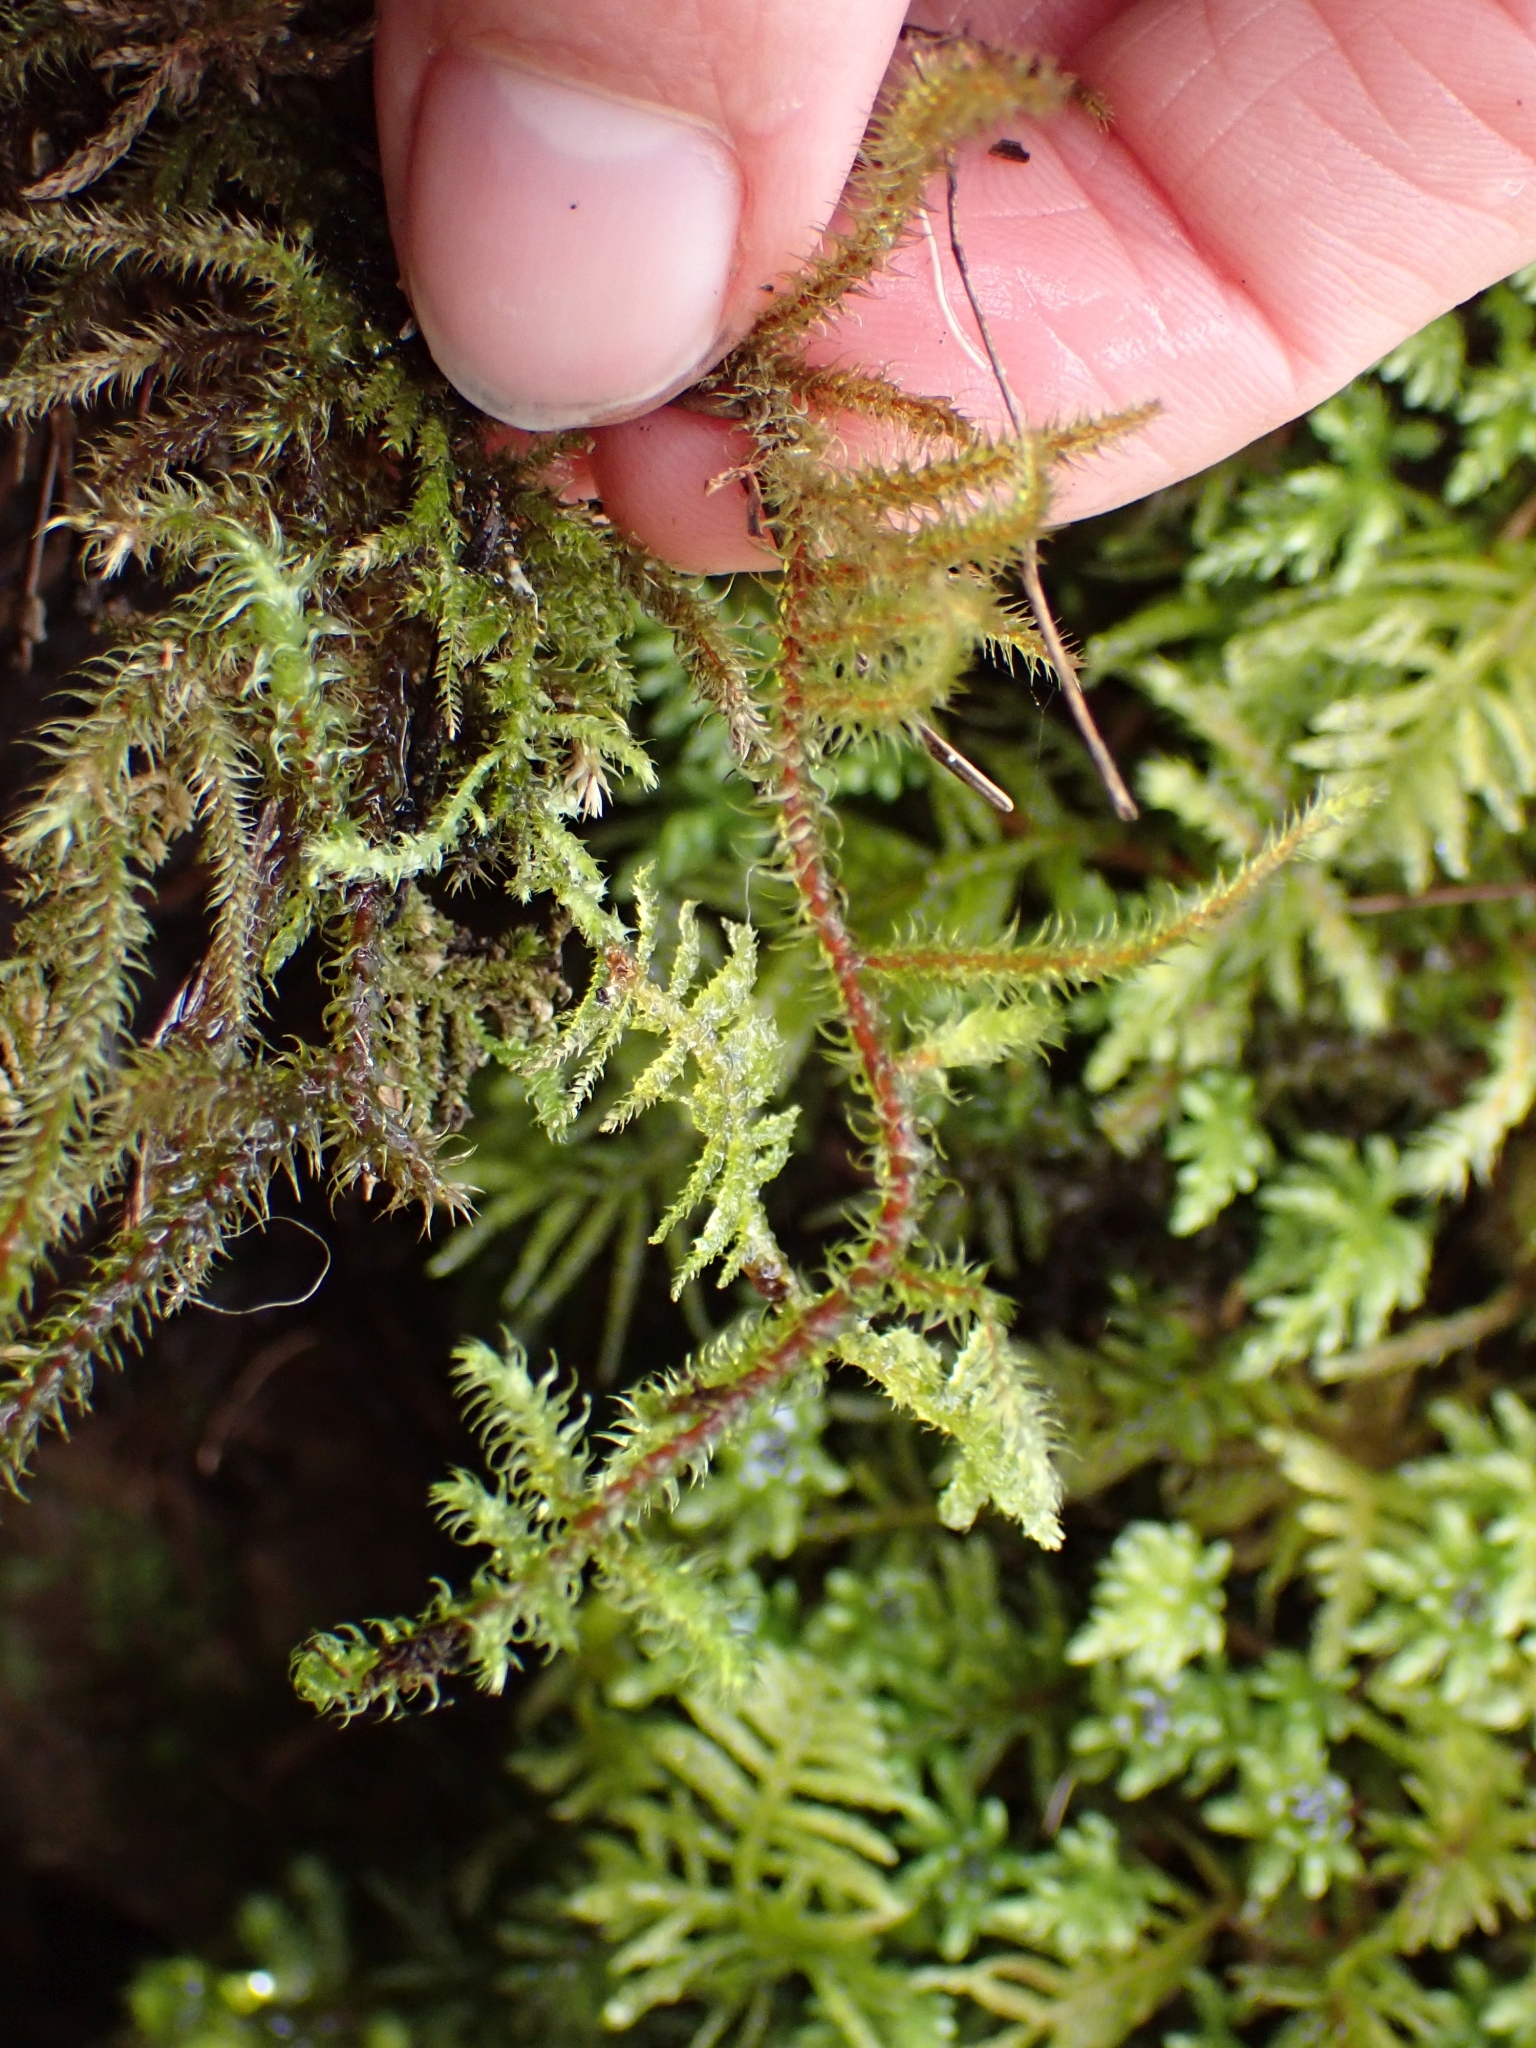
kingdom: Plantae
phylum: Bryophyta
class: Bryopsida
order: Hypnales
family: Hylocomiaceae
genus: Rhytidiadelphus
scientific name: Rhytidiadelphus loreus
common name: Lanky moss
